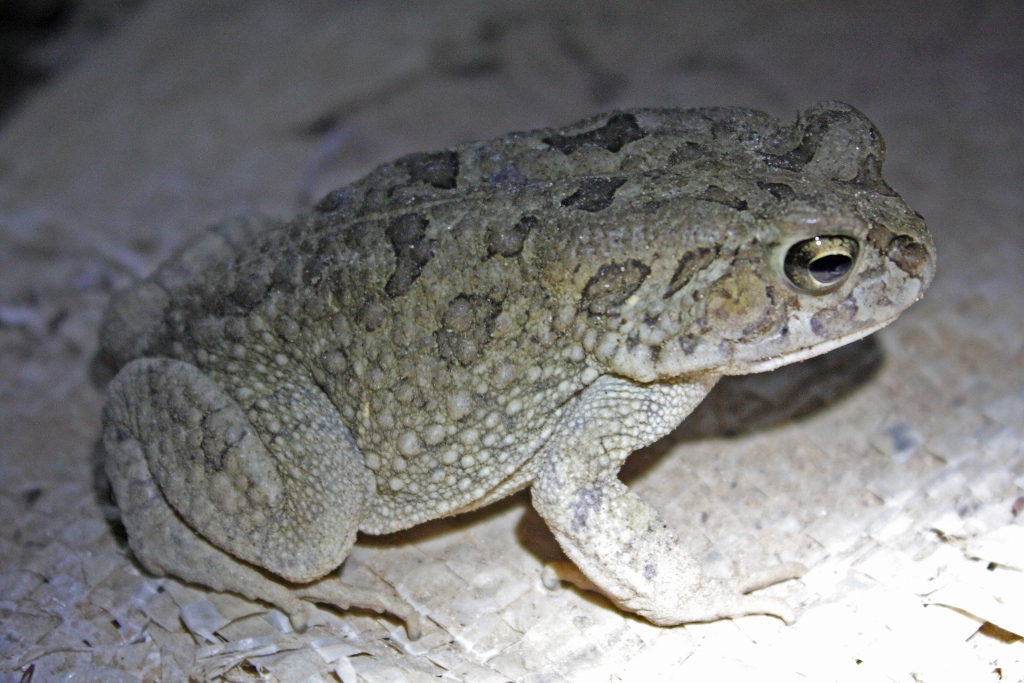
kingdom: Animalia
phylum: Chordata
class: Amphibia
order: Anura
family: Bufonidae
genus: Sclerophrys
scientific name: Sclerophrys regularis
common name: African common toad
